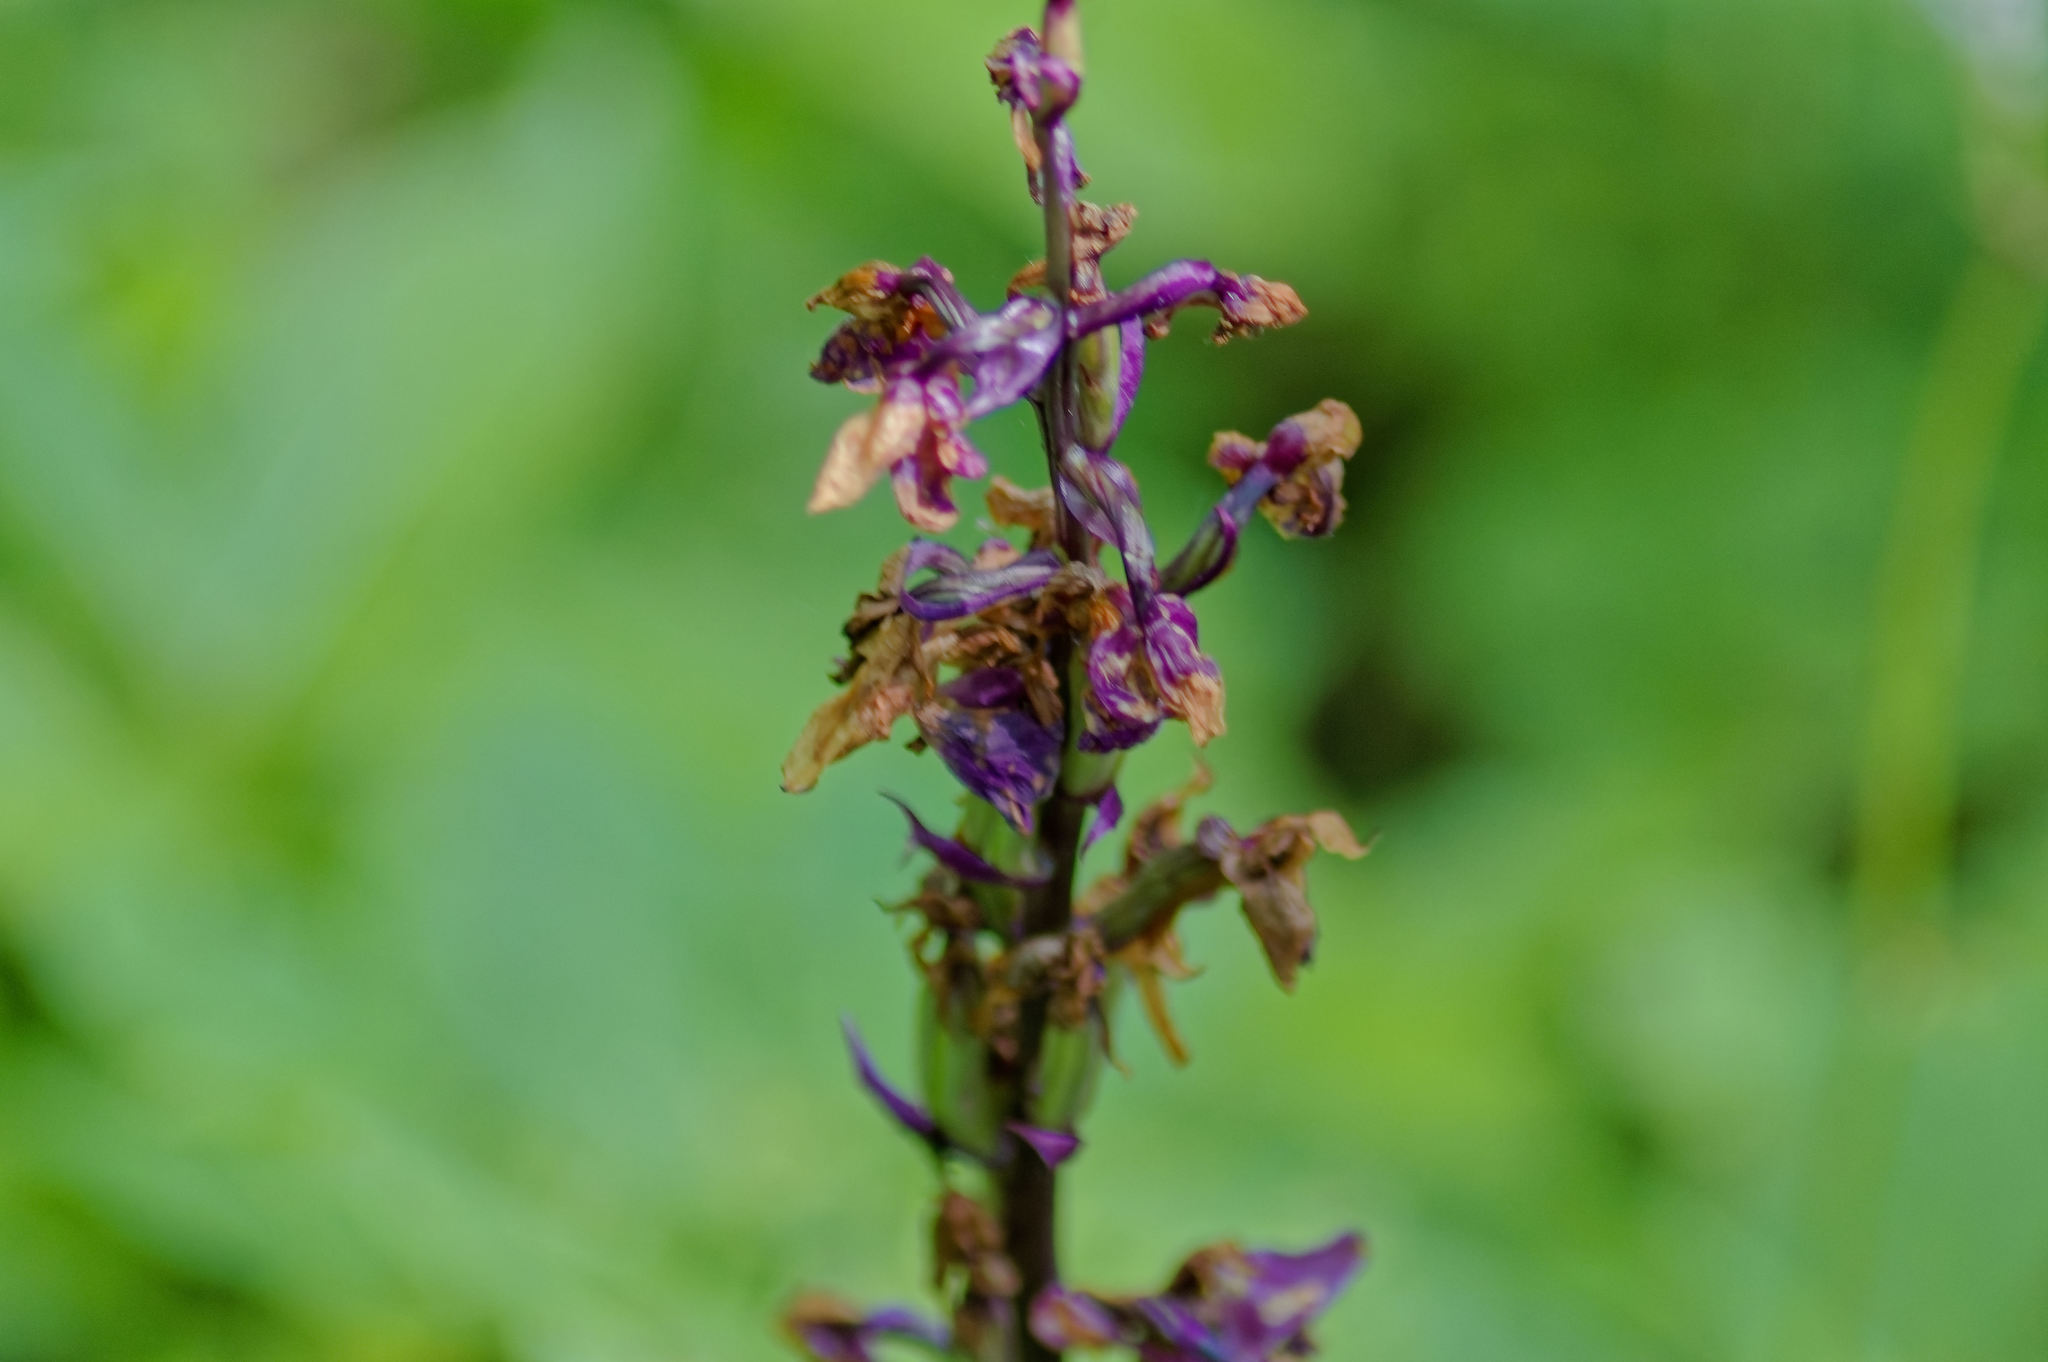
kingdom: Plantae
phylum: Tracheophyta
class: Liliopsida
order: Asparagales
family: Orchidaceae
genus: Orchis
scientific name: Orchis mascula
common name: Early-purple orchid
